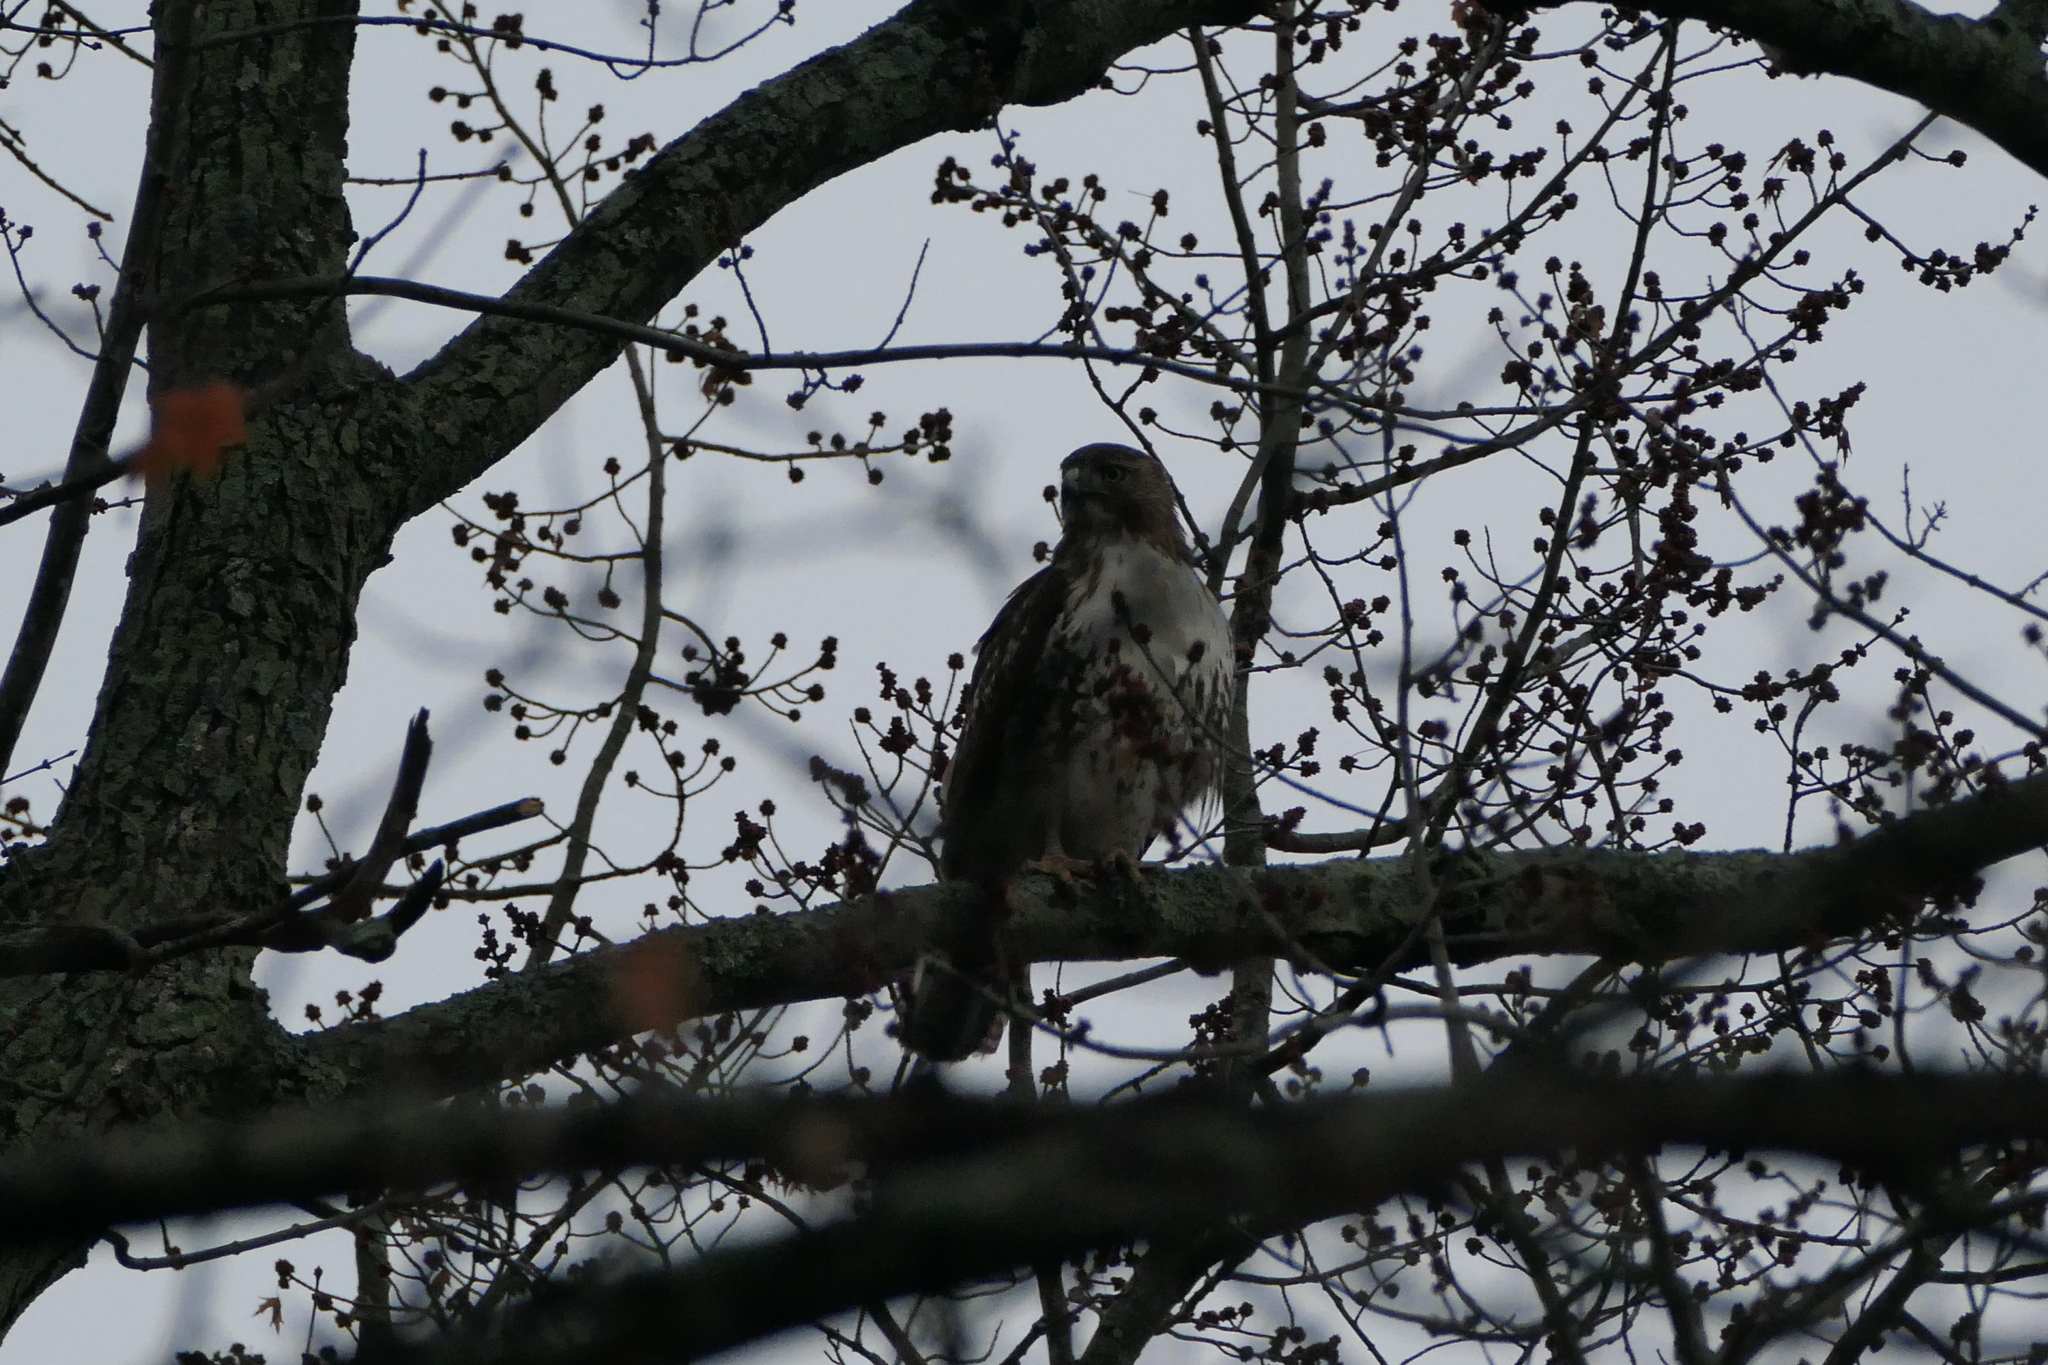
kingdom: Animalia
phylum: Chordata
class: Aves
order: Accipitriformes
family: Accipitridae
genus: Buteo
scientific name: Buteo jamaicensis
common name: Red-tailed hawk
